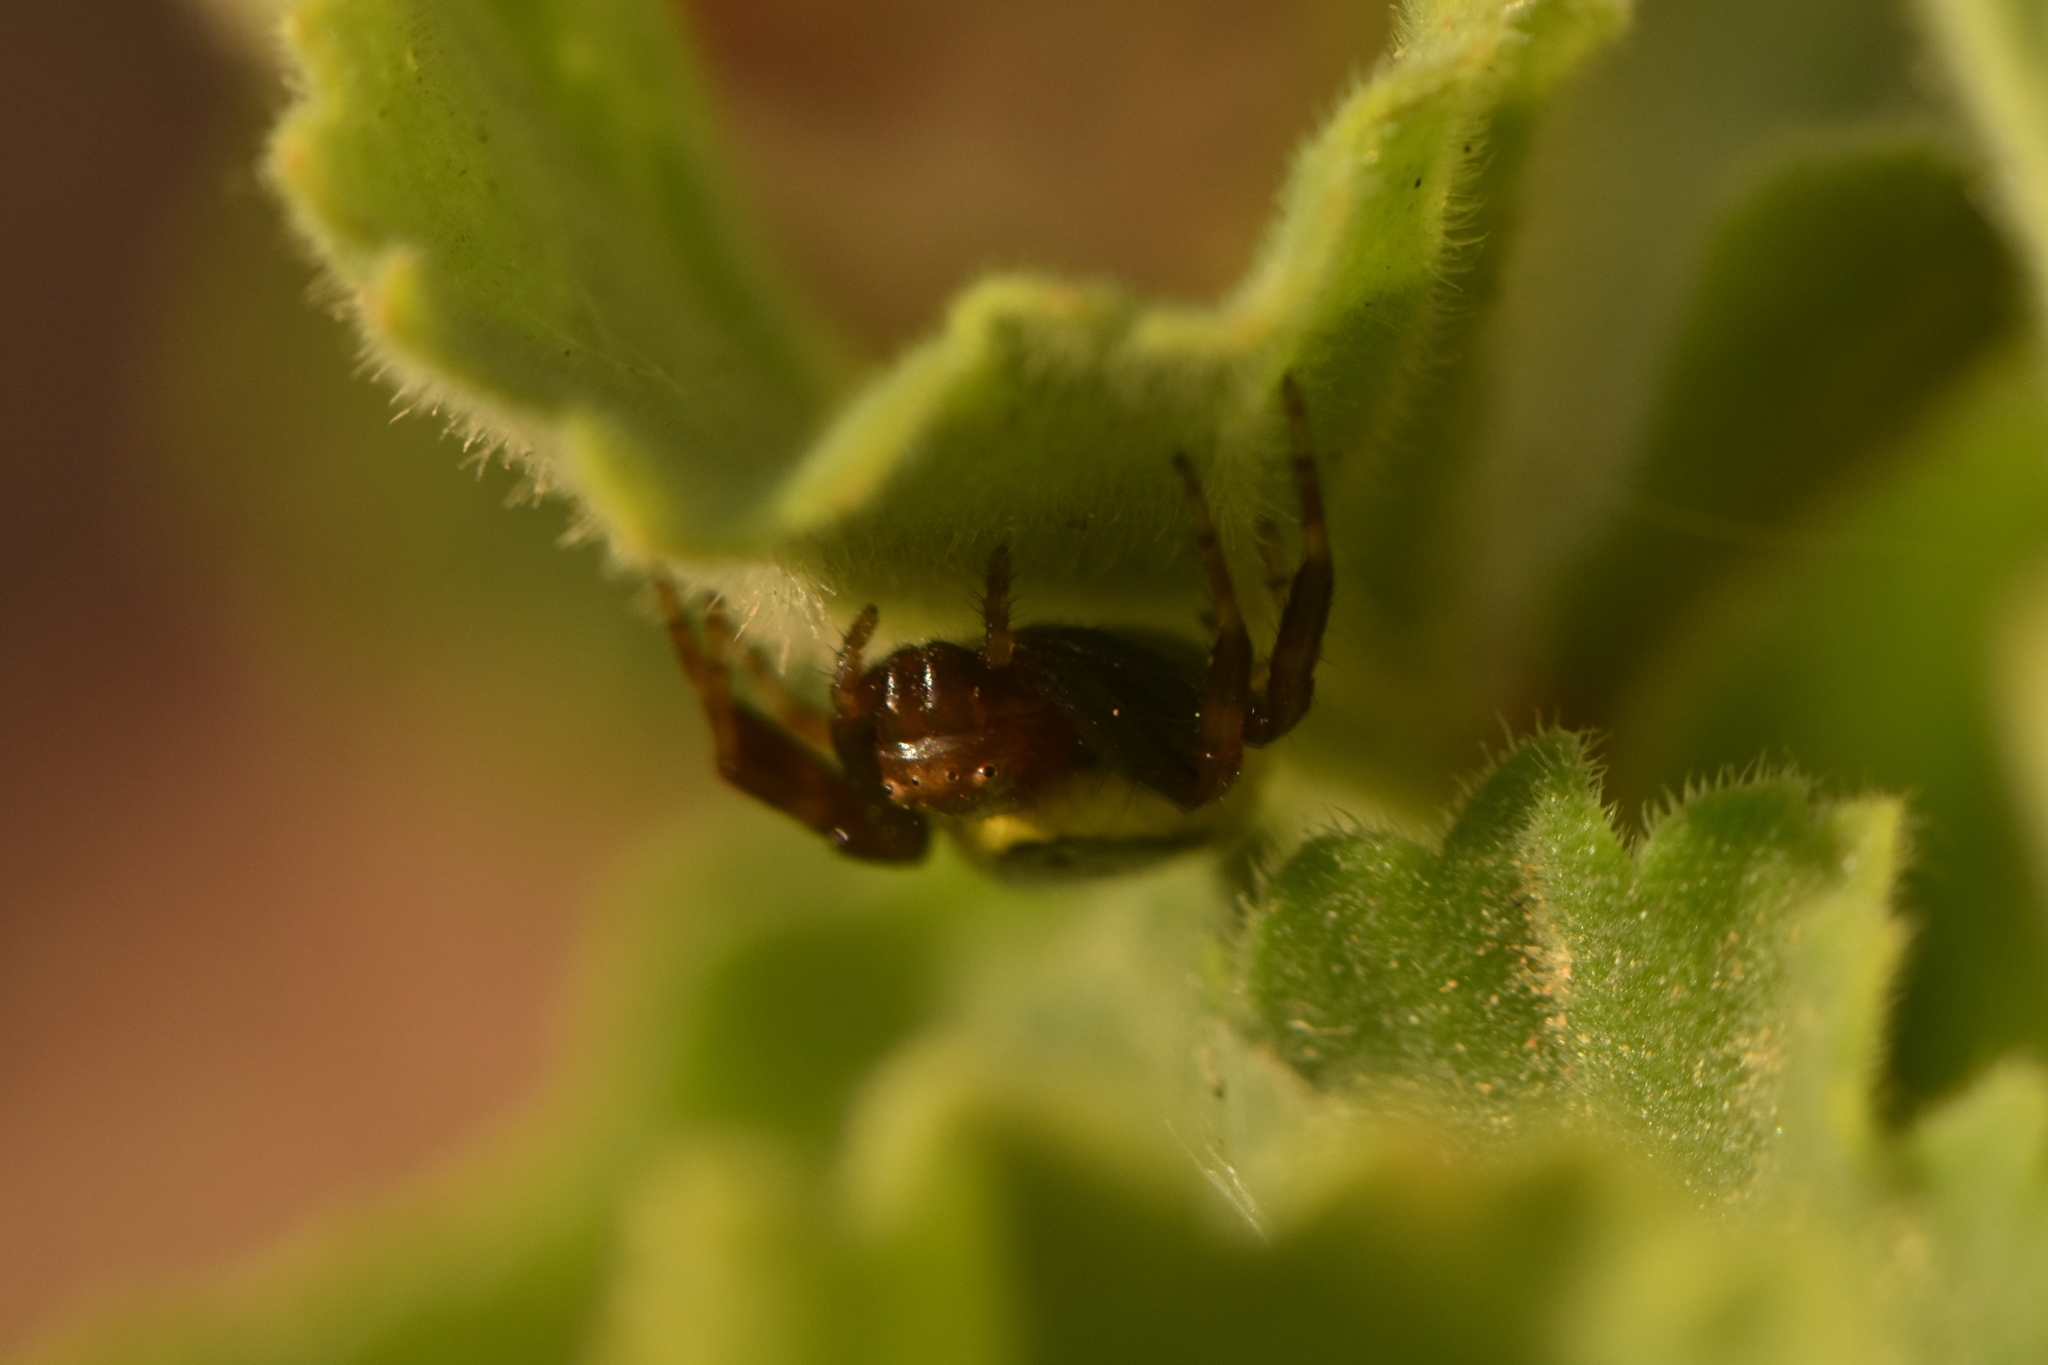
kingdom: Animalia
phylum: Arthropoda
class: Arachnida
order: Araneae
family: Thomisidae
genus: Synema
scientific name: Synema globosum
